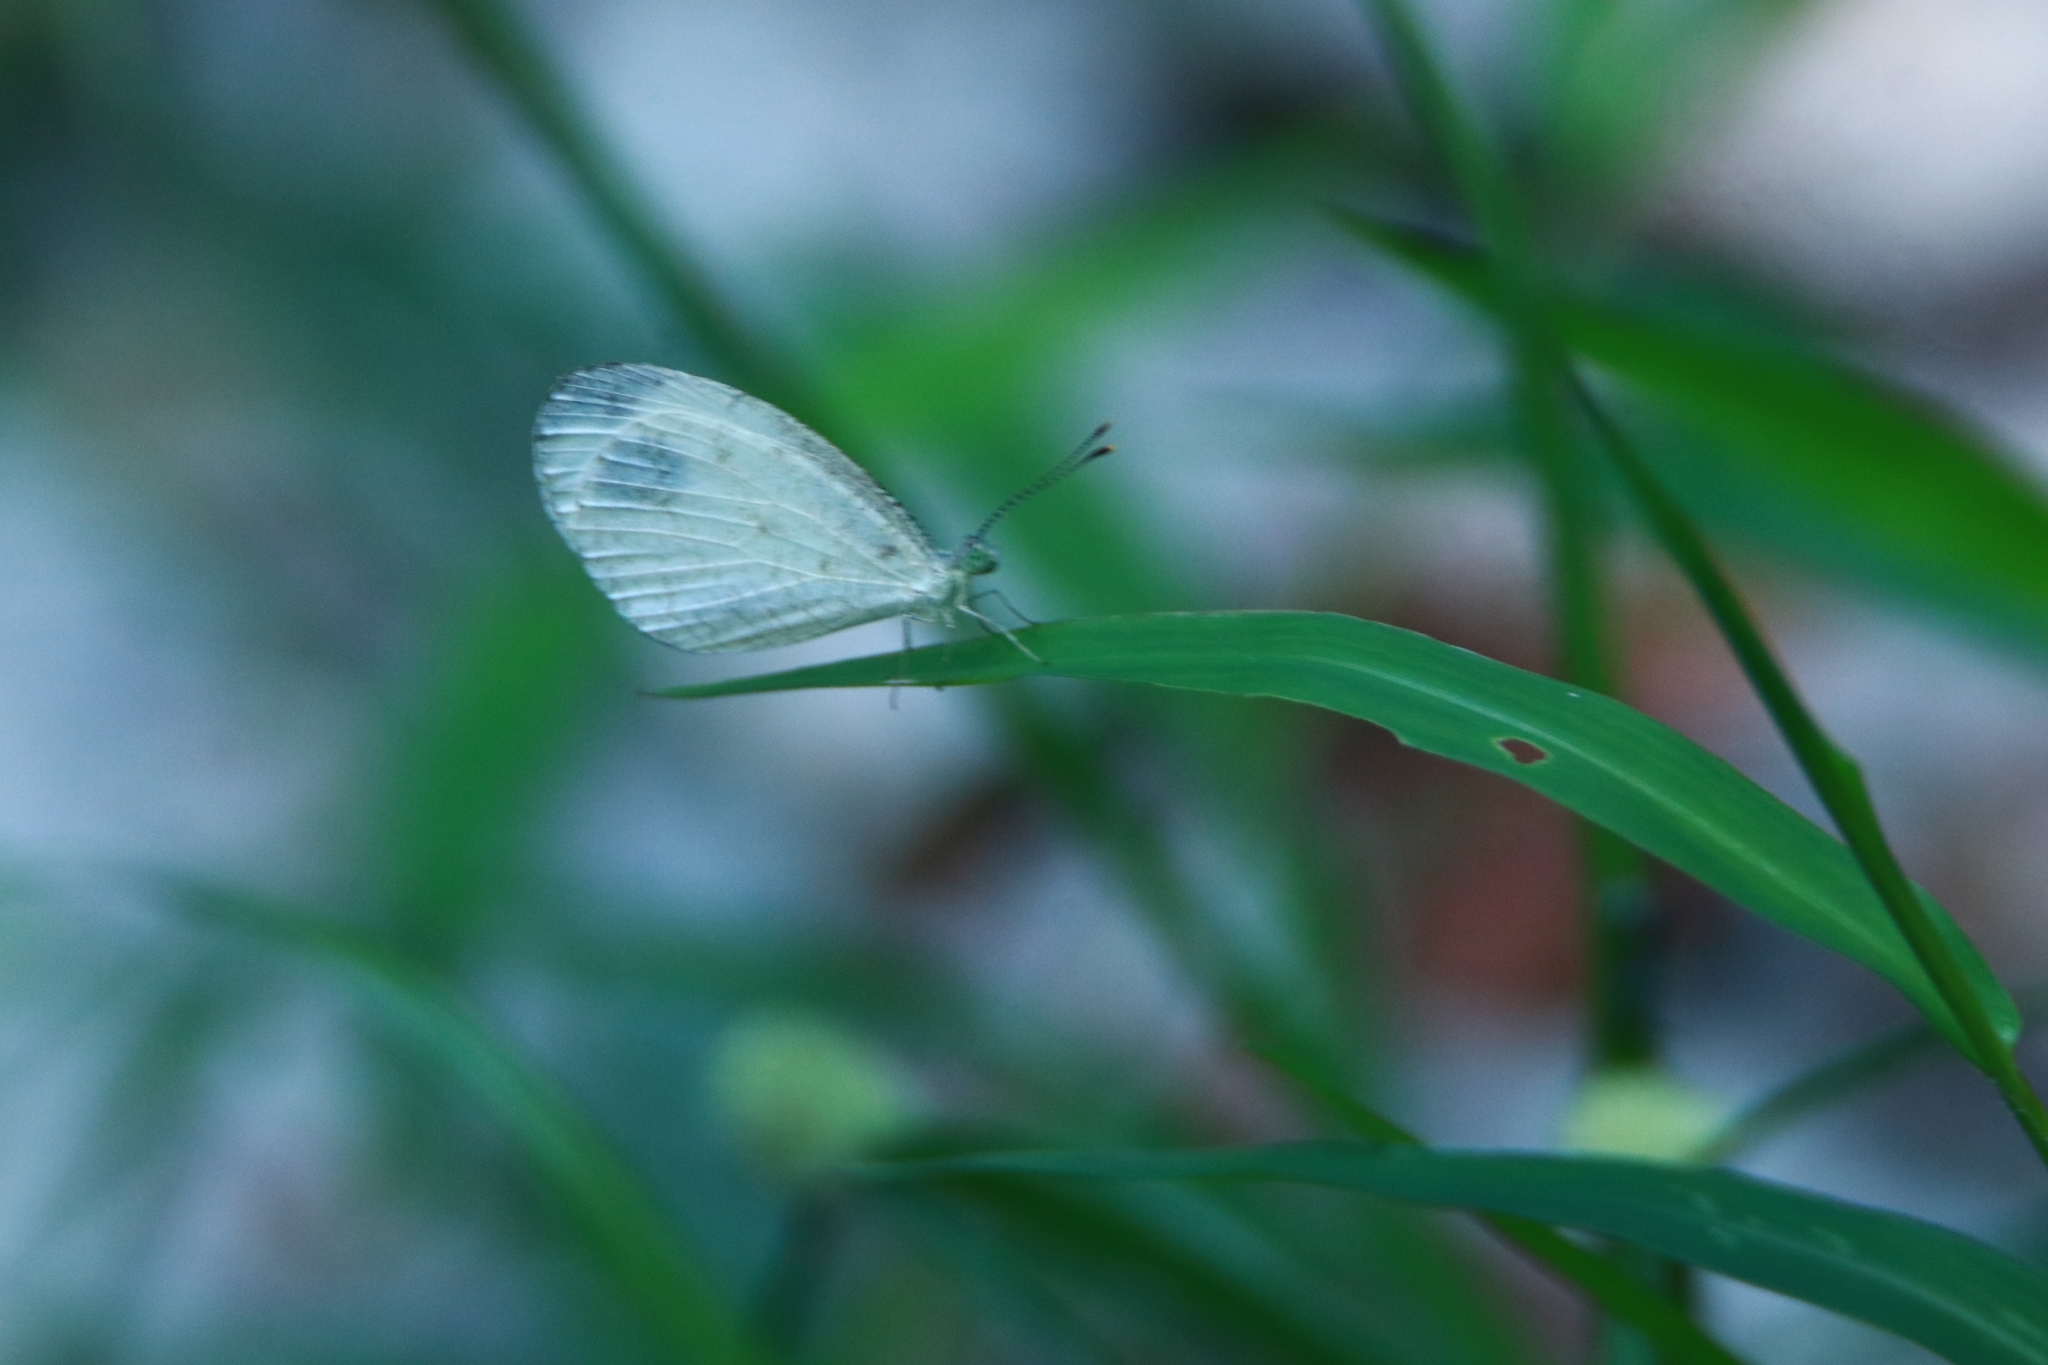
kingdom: Animalia
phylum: Arthropoda
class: Insecta
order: Lepidoptera
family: Pieridae
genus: Leptosia
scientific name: Leptosia nina
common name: Psyche
